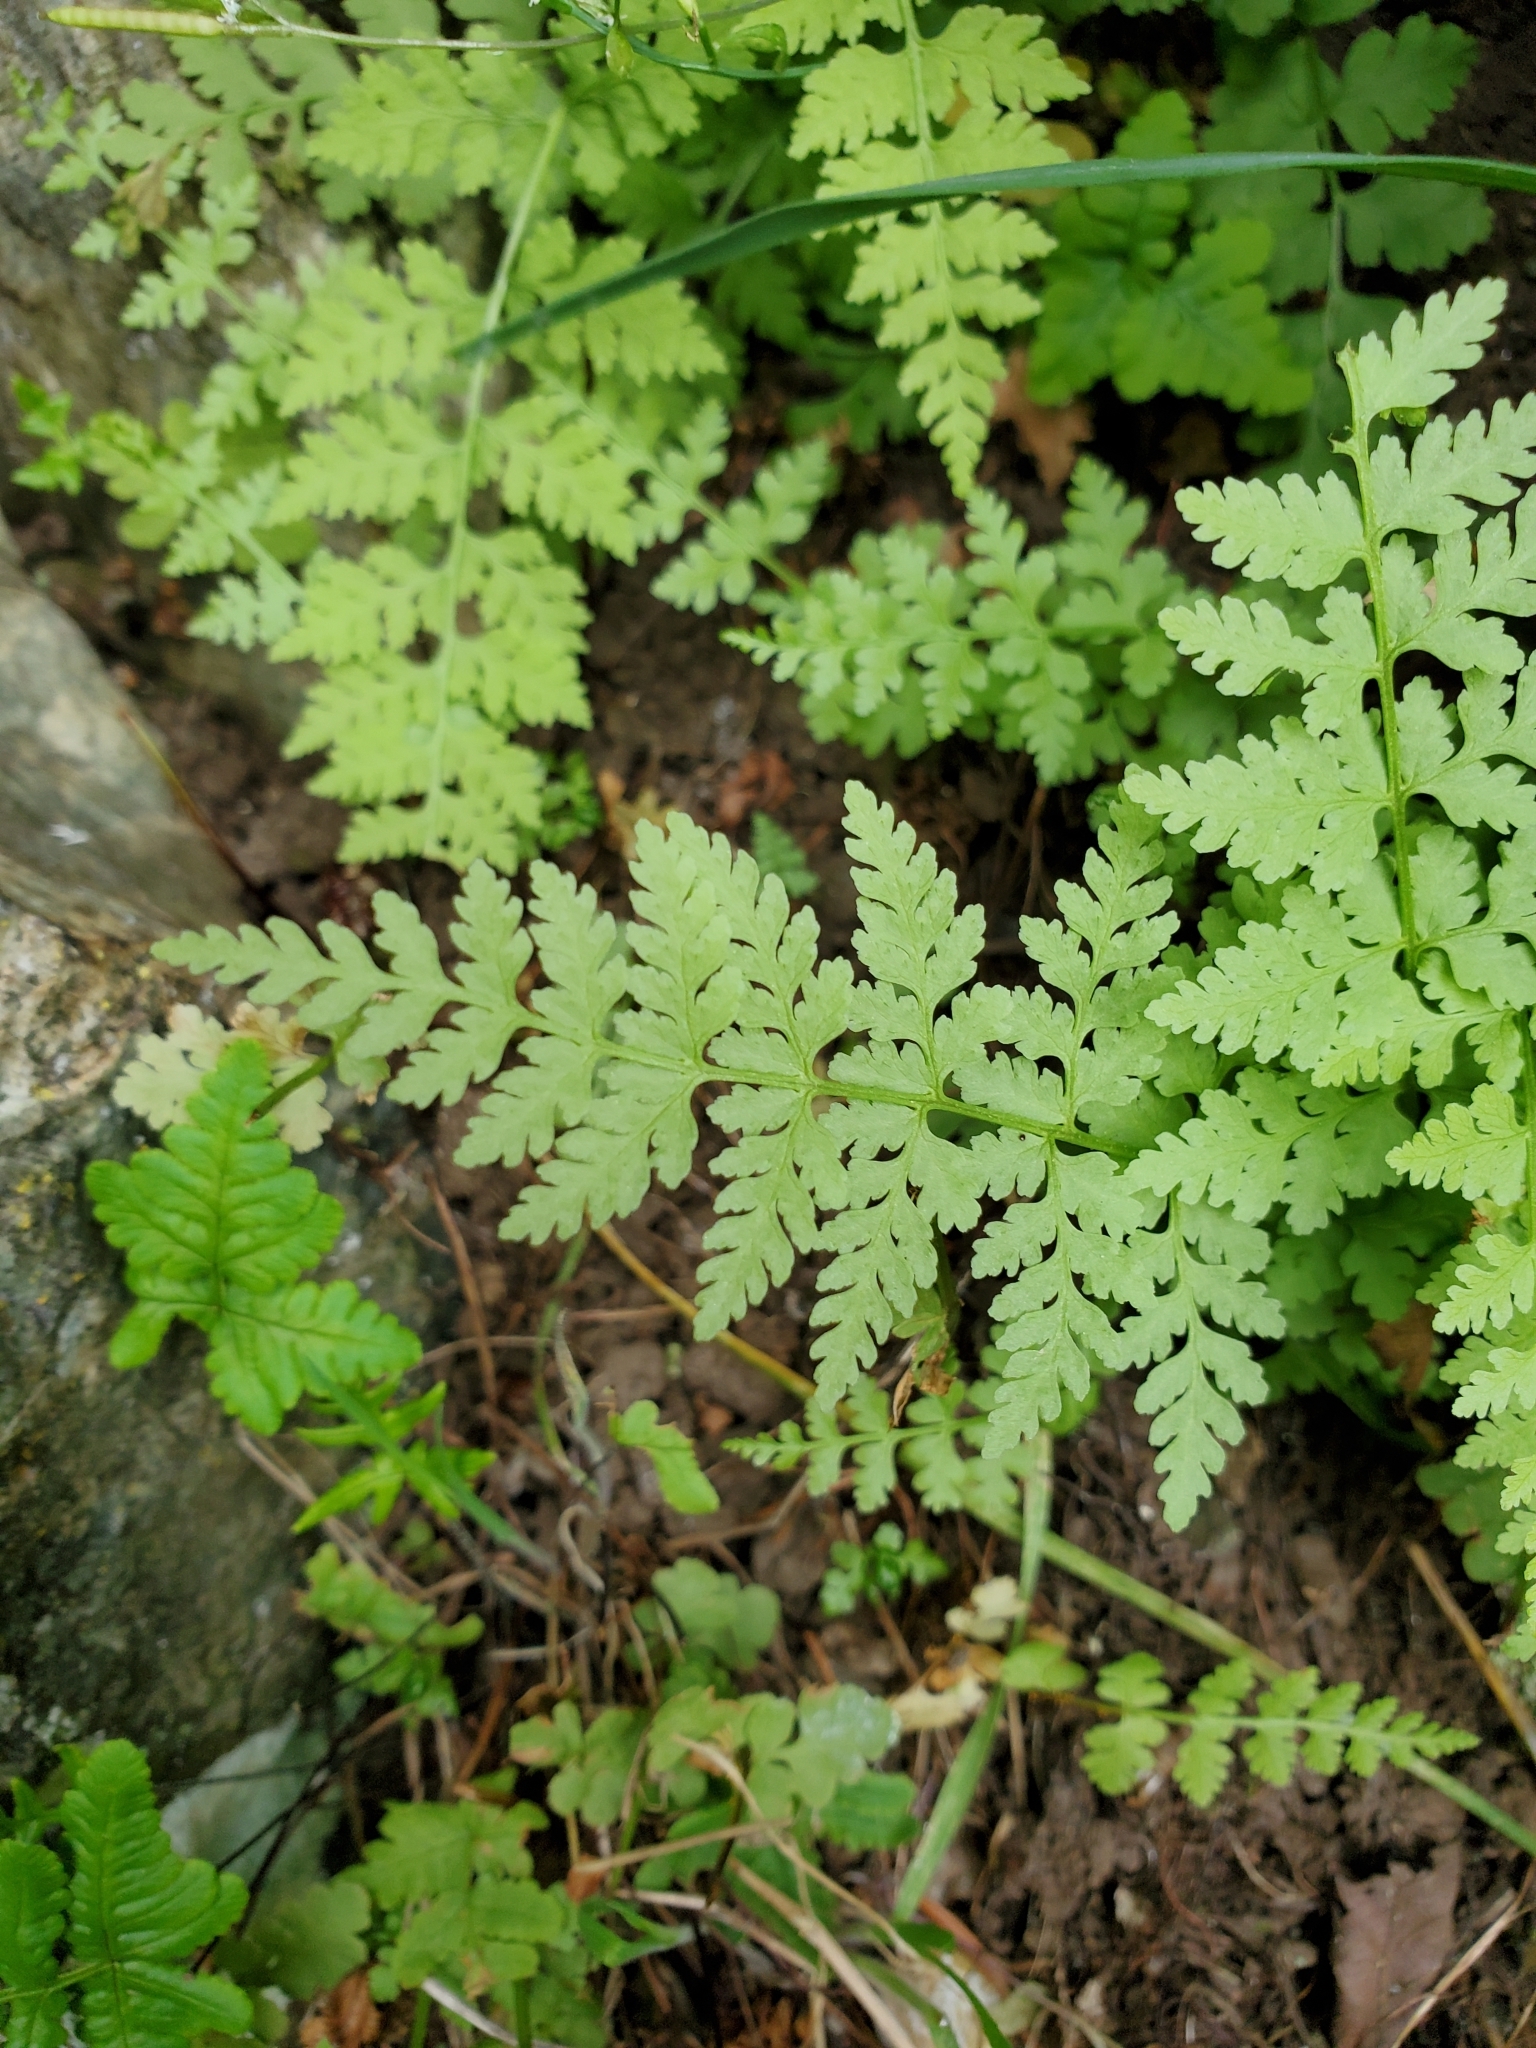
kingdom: Plantae
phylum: Tracheophyta
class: Polypodiopsida
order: Polypodiales
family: Cystopteridaceae
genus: Cystopteris
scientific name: Cystopteris fragilis
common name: Brittle bladder fern
